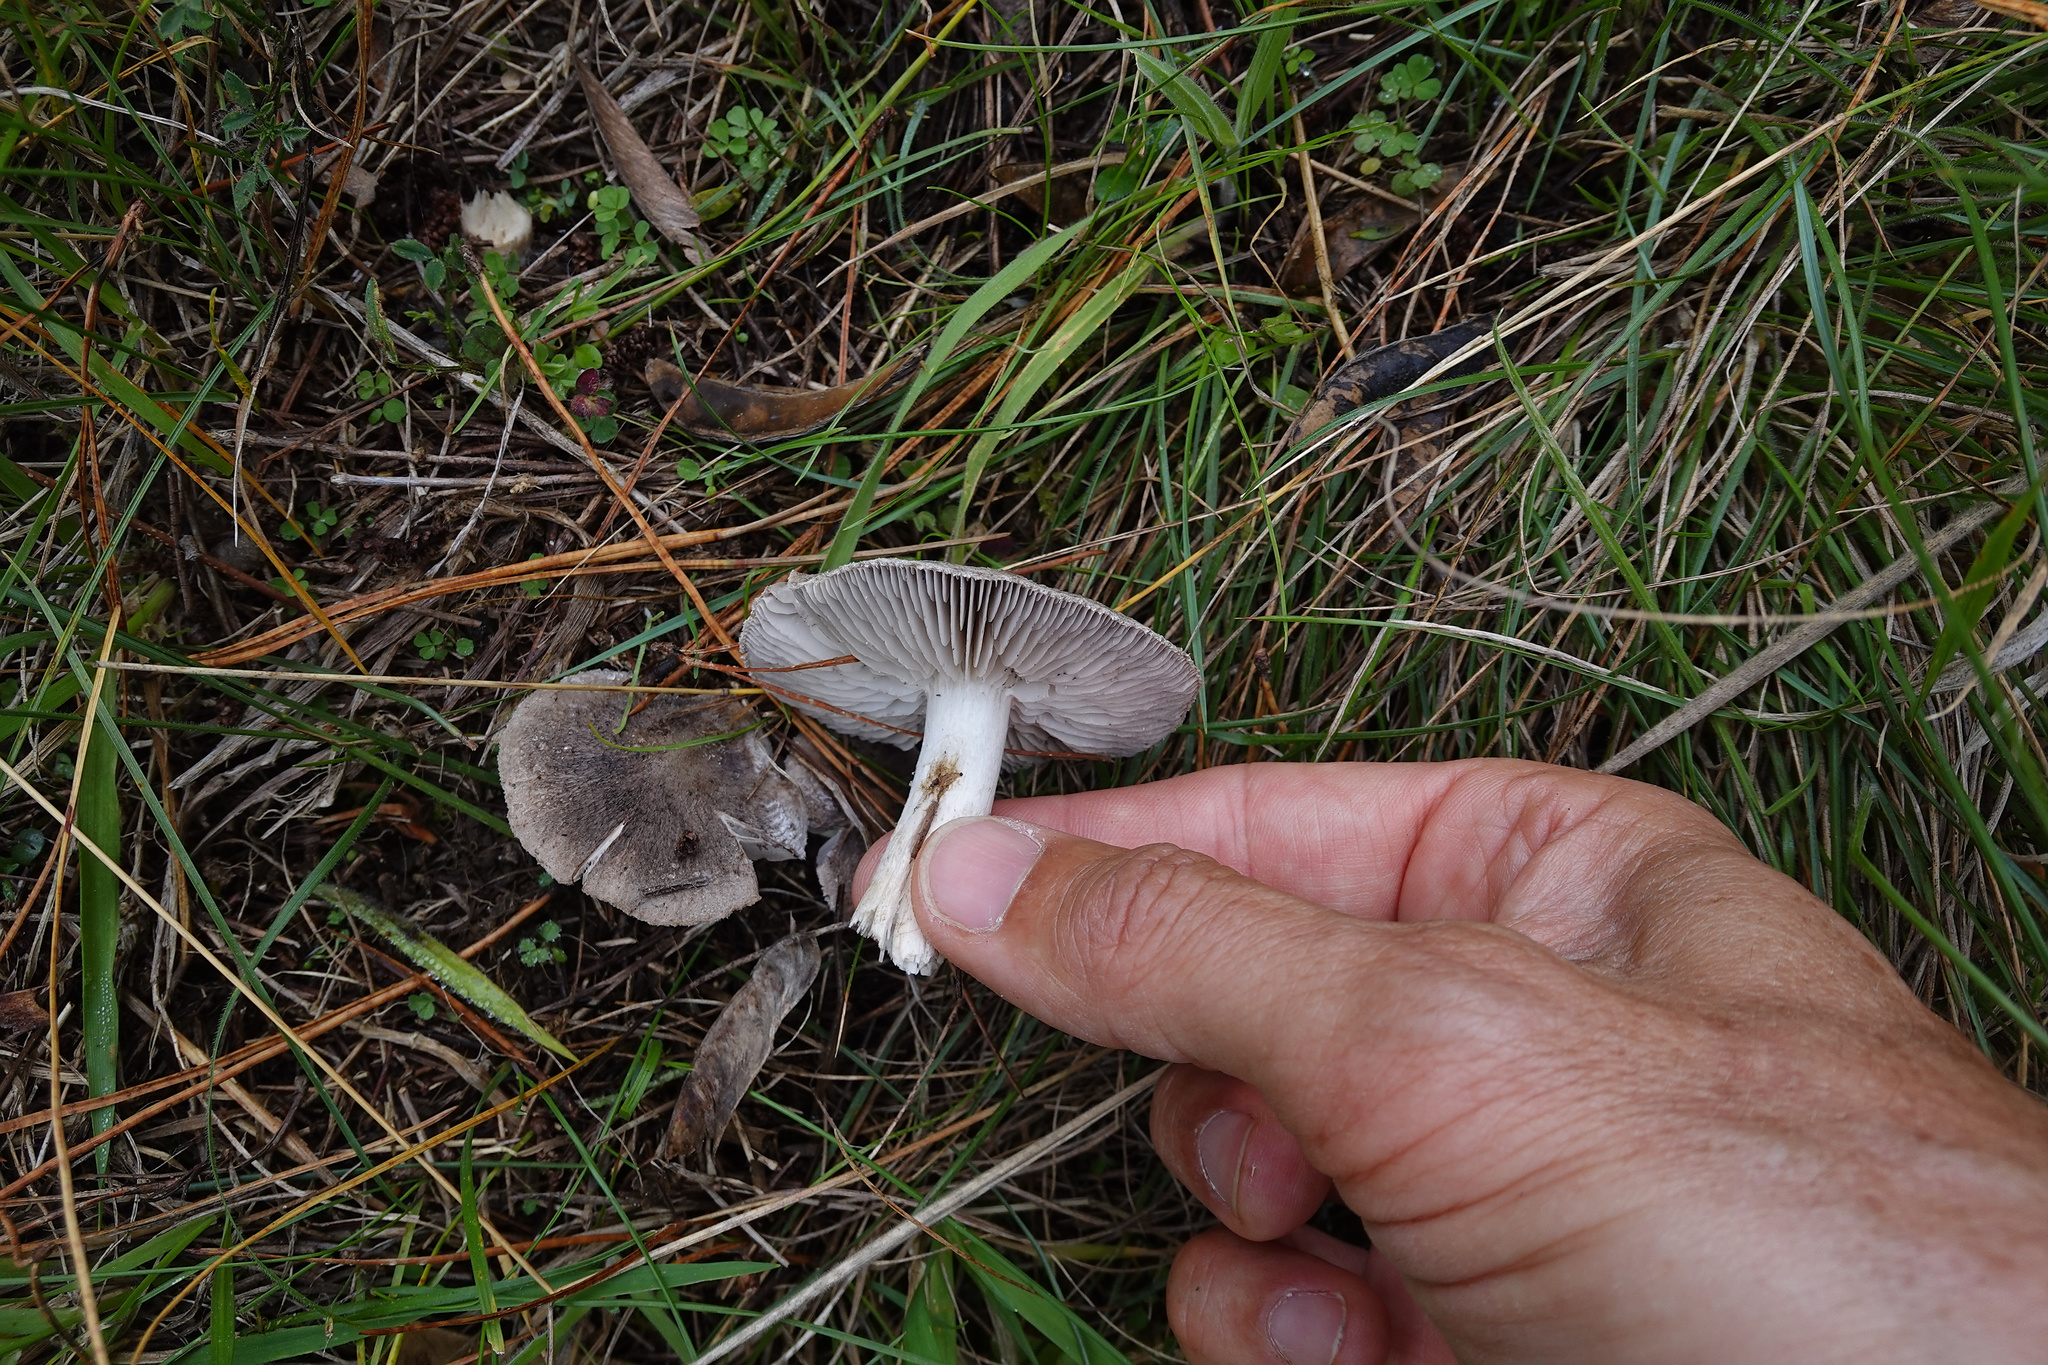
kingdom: Fungi
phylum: Basidiomycota
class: Agaricomycetes
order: Agaricales
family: Tricholomataceae
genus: Tricholoma
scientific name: Tricholoma terreum
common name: Grey knight
